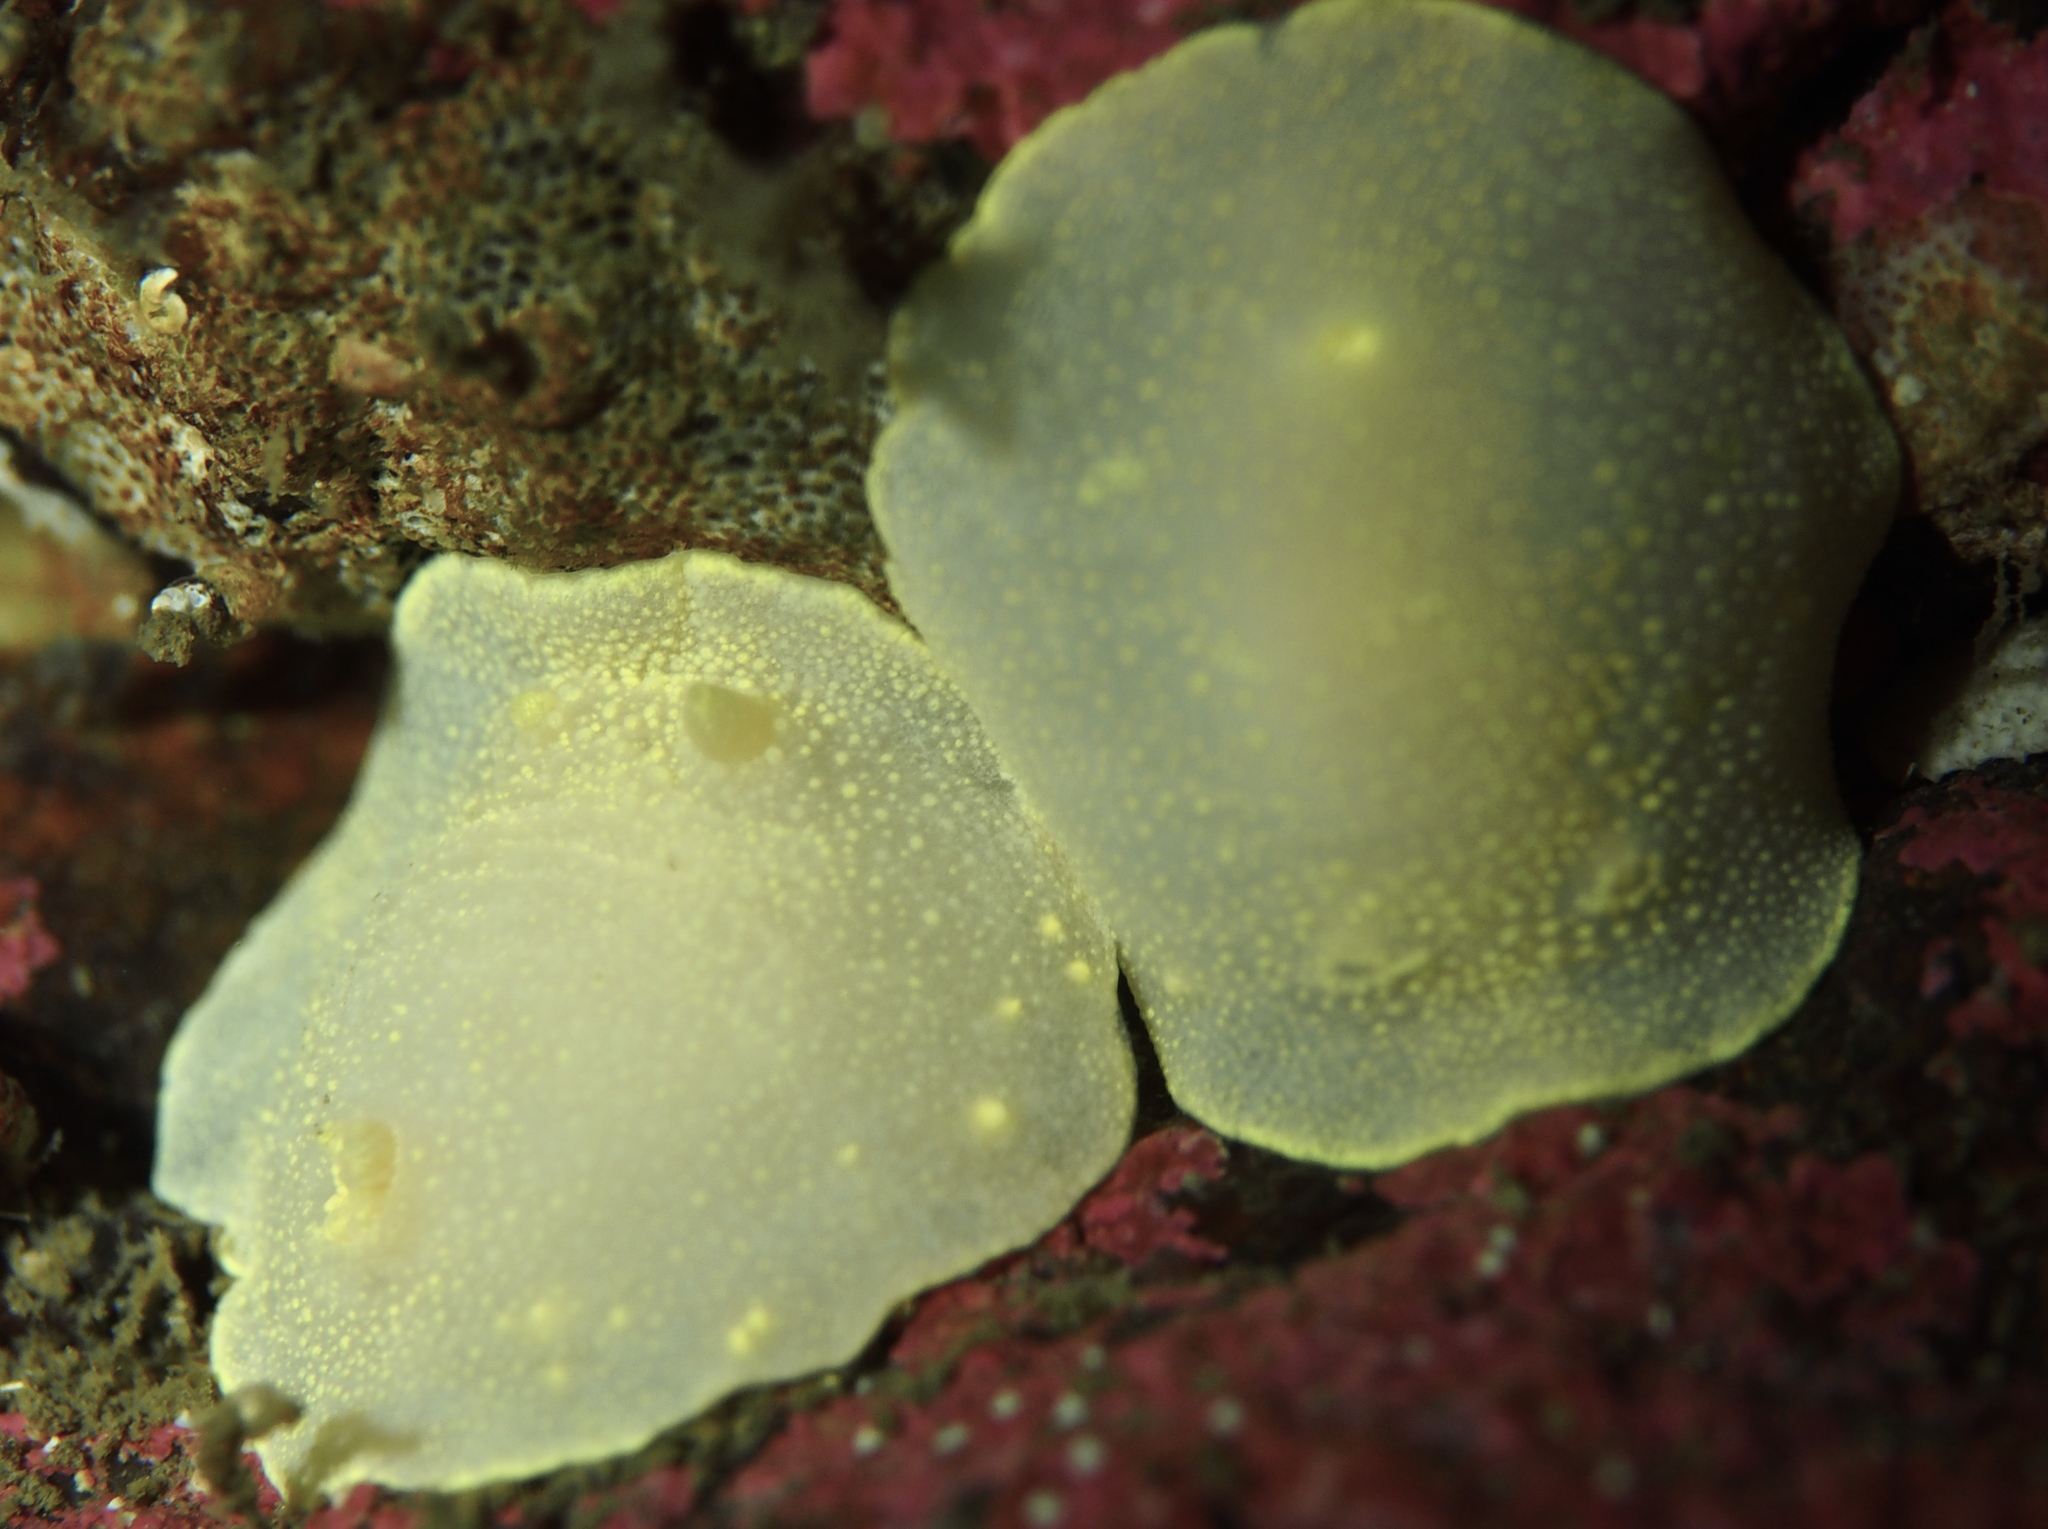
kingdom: Animalia
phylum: Mollusca
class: Gastropoda
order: Nudibranchia
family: Cadlinidae
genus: Cadlina
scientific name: Cadlina laevis
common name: White atlantic cadlina
